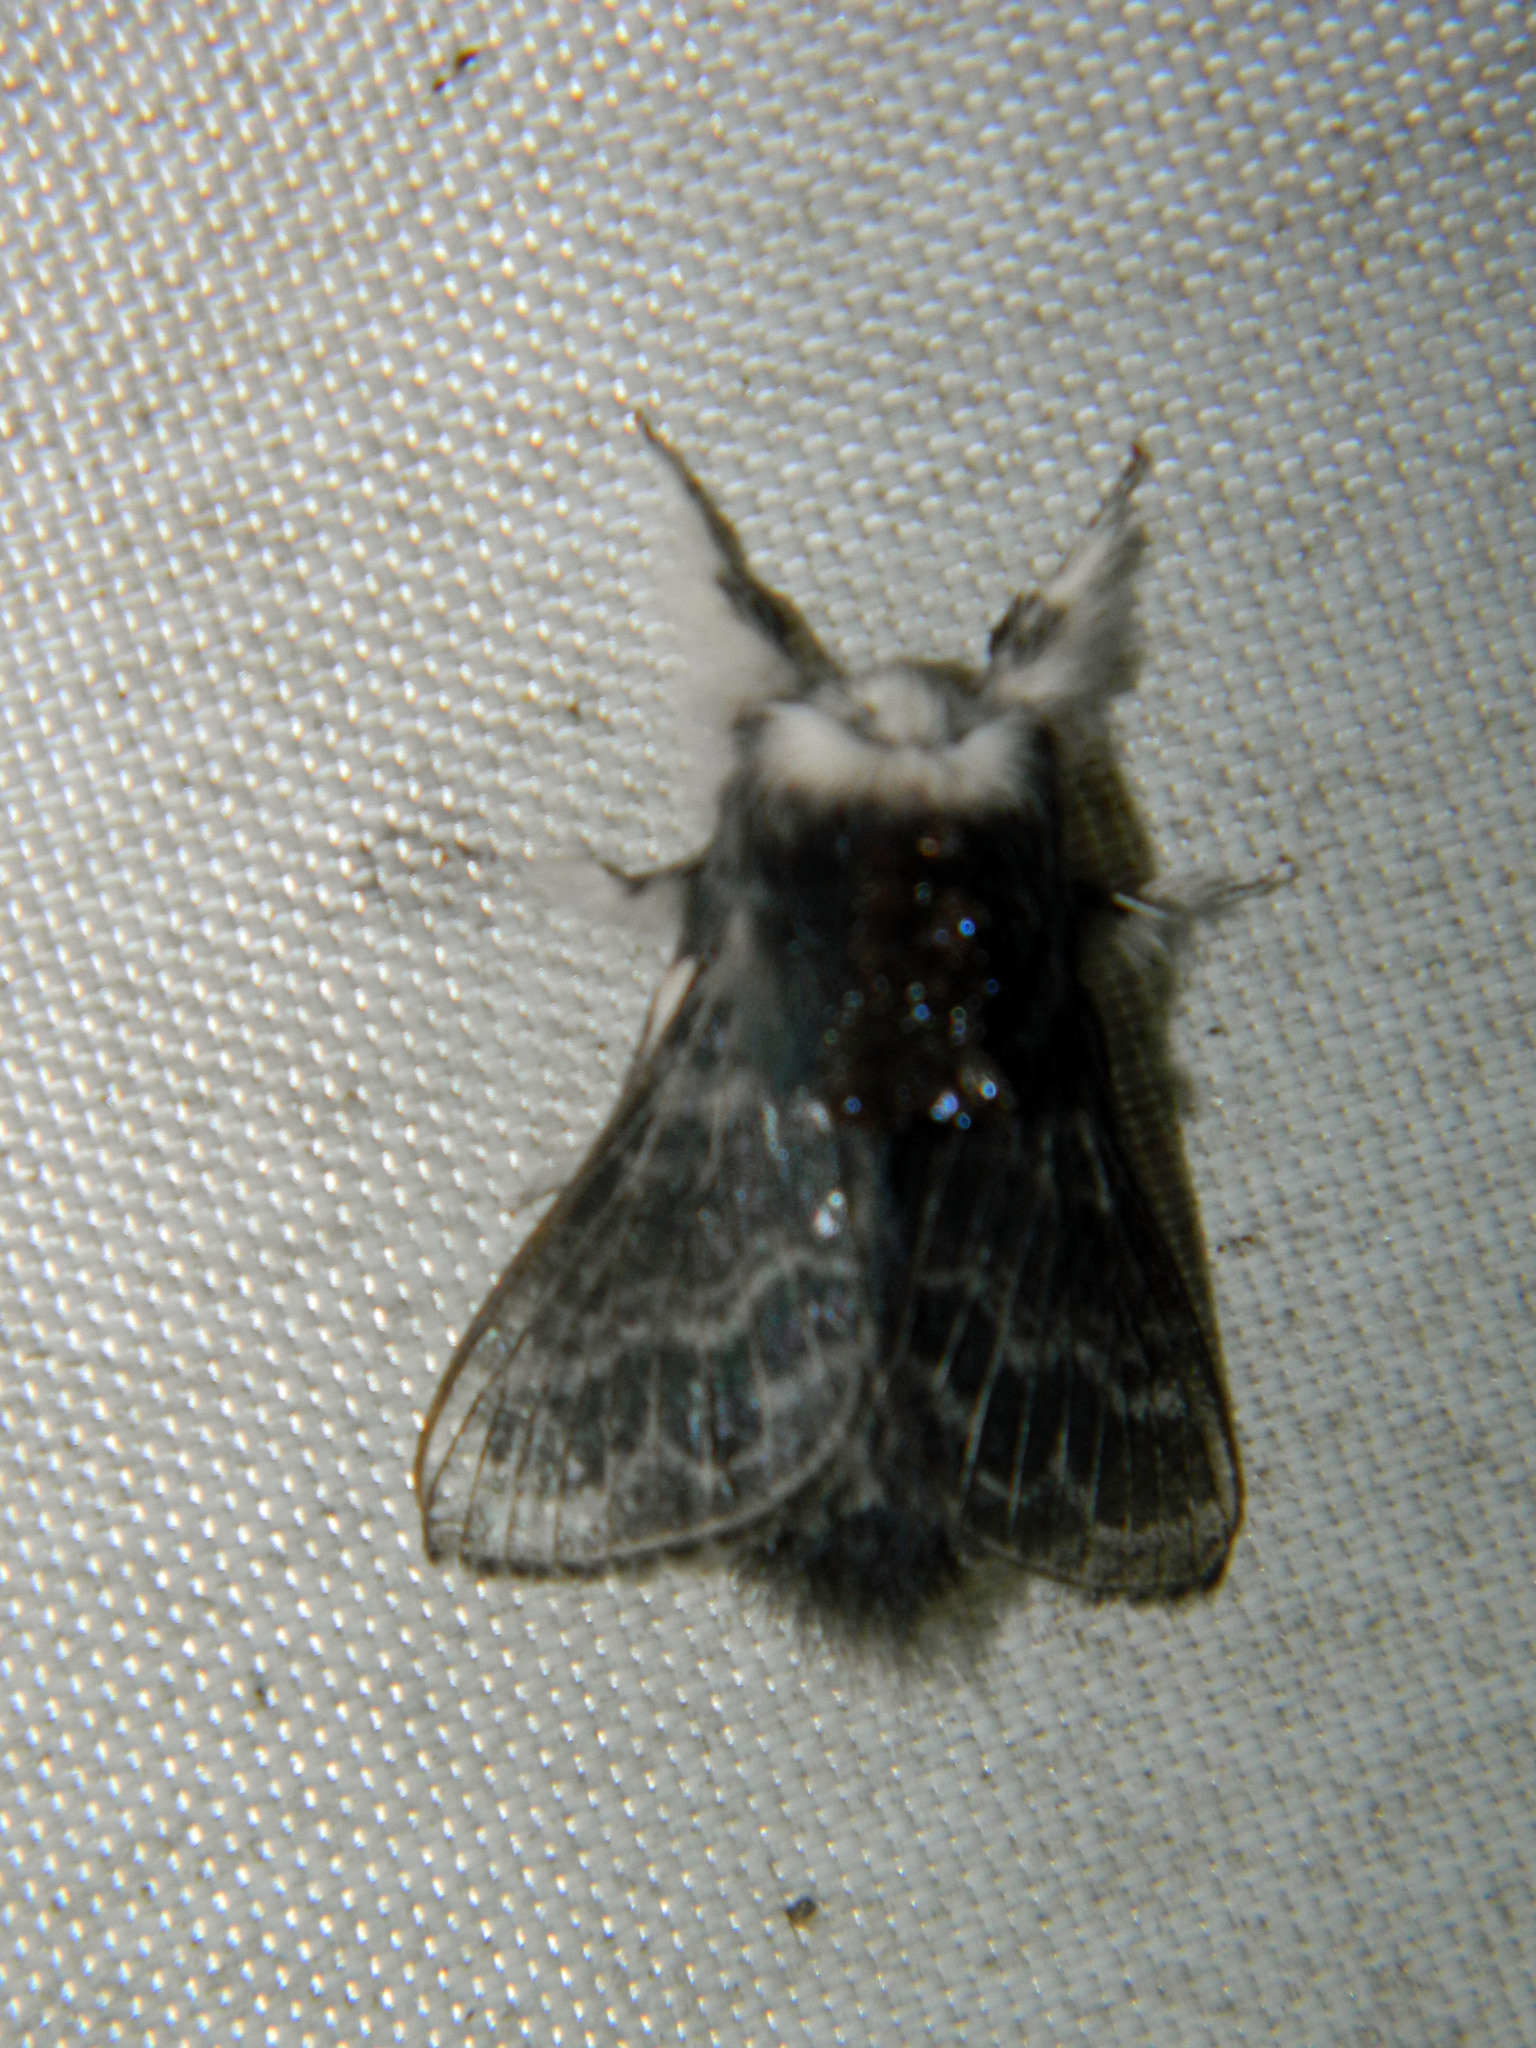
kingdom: Animalia
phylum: Arthropoda
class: Insecta
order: Lepidoptera
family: Lasiocampidae
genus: Tolype
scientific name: Tolype laricis
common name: Larch tolype moth
